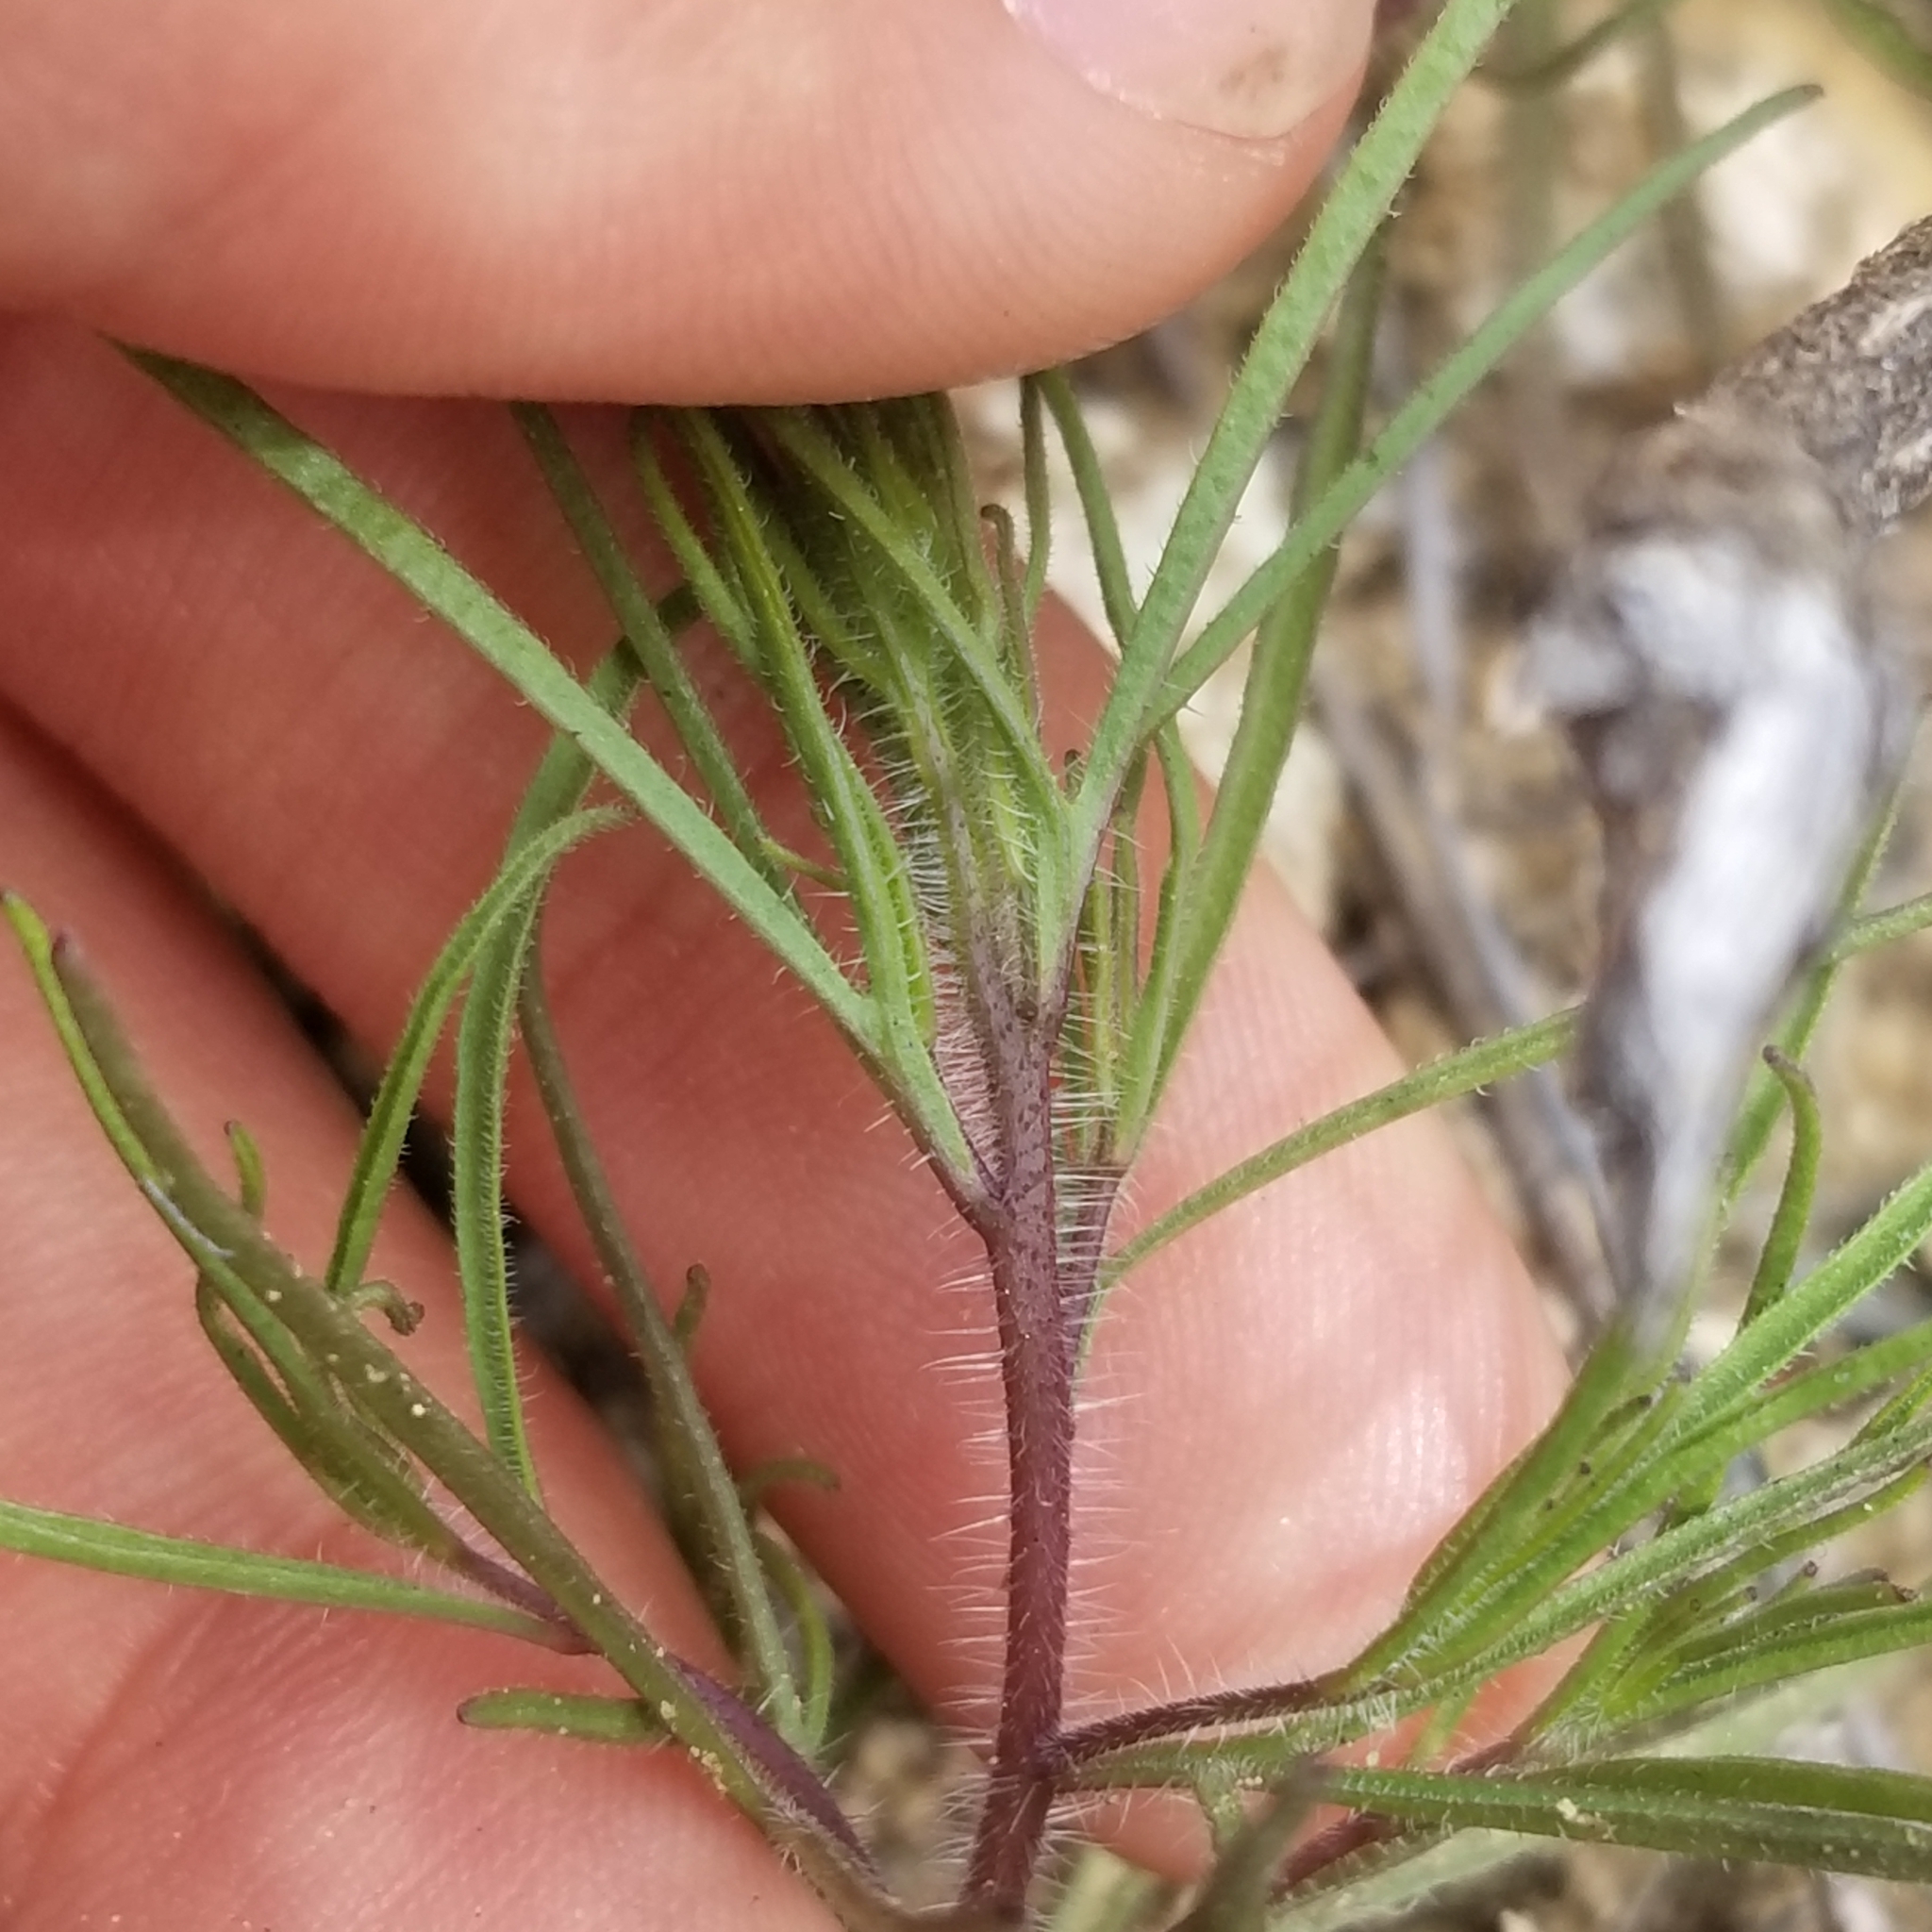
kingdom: Plantae
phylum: Tracheophyta
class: Magnoliopsida
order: Lamiales
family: Orobanchaceae
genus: Cordylanthus
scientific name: Cordylanthus rigidus
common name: Stiff-branch bird's-beak
